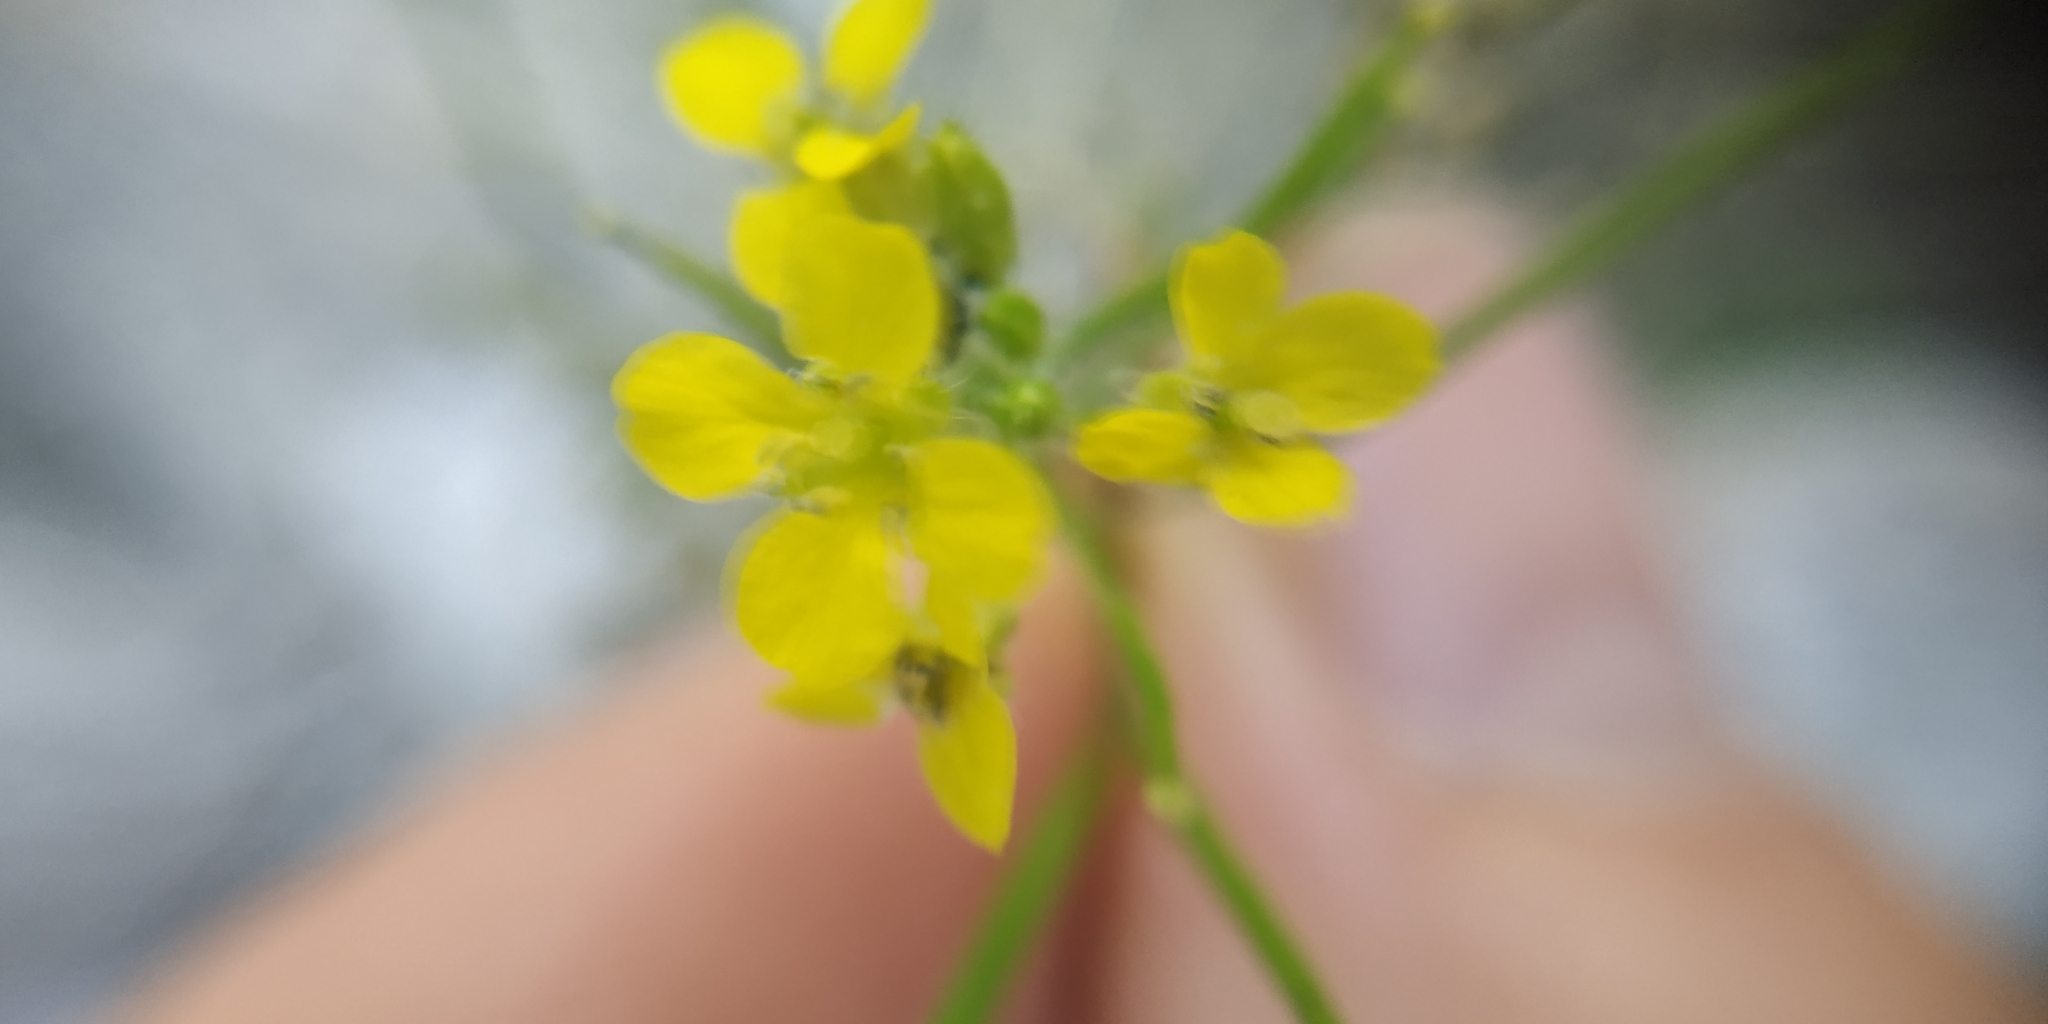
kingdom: Plantae
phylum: Tracheophyta
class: Magnoliopsida
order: Brassicales
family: Brassicaceae
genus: Sisymbrium
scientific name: Sisymbrium loeselii
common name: False london-rocket
